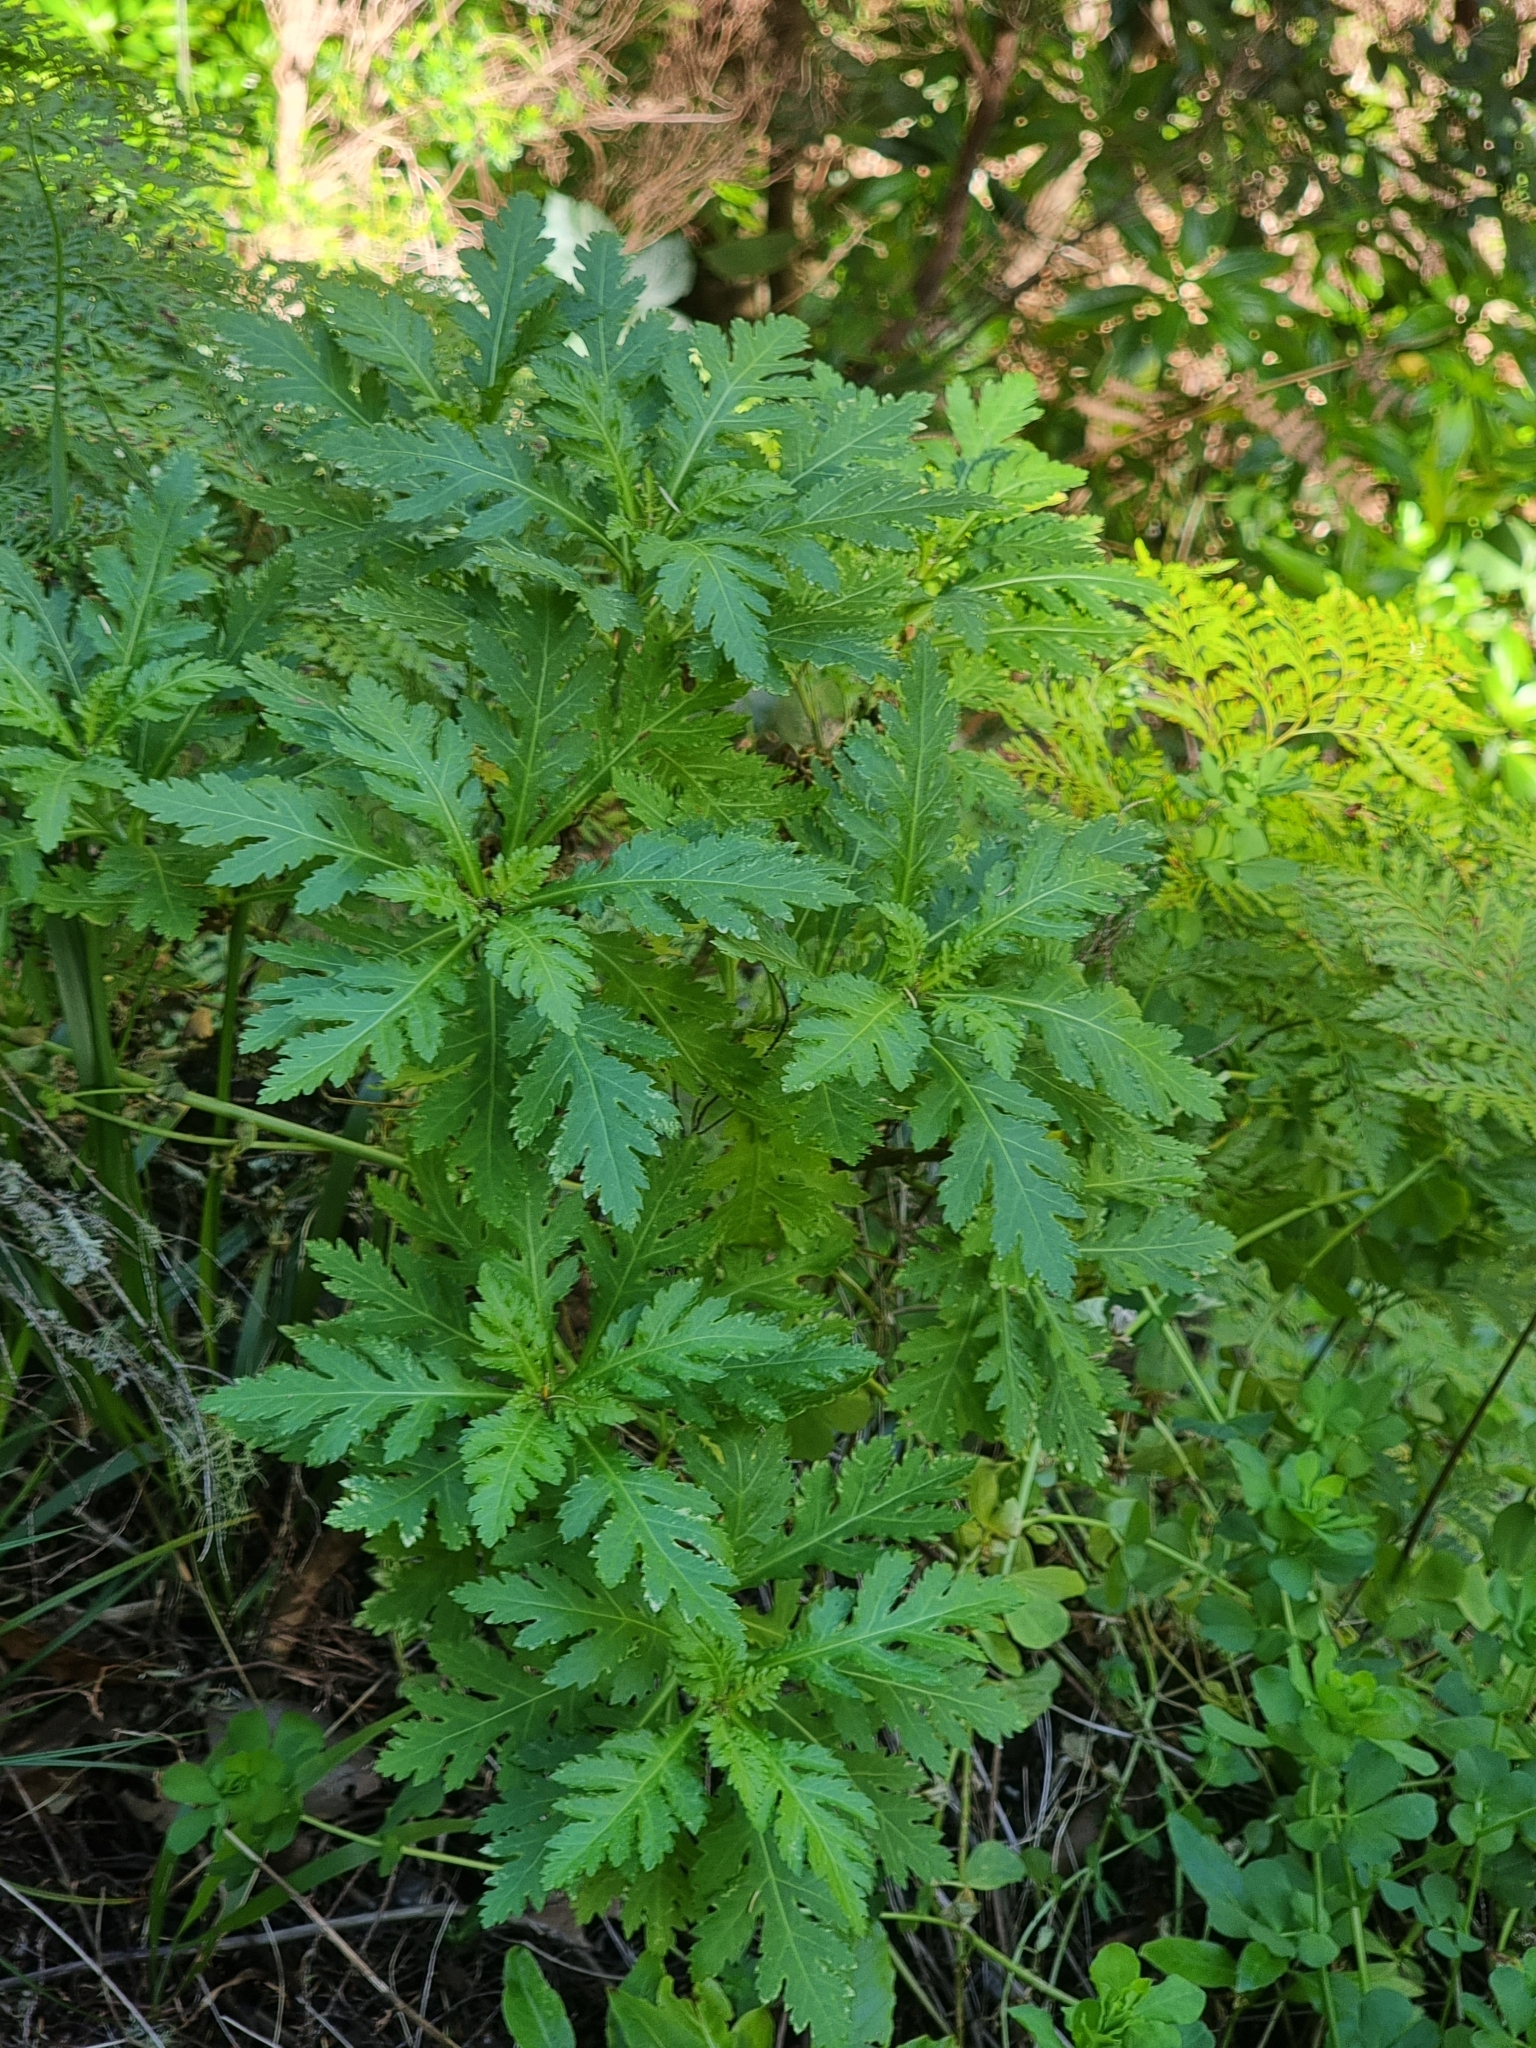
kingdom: Plantae
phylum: Tracheophyta
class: Magnoliopsida
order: Asterales
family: Asteraceae
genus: Argyranthemum
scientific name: Argyranthemum pinnatifidum
